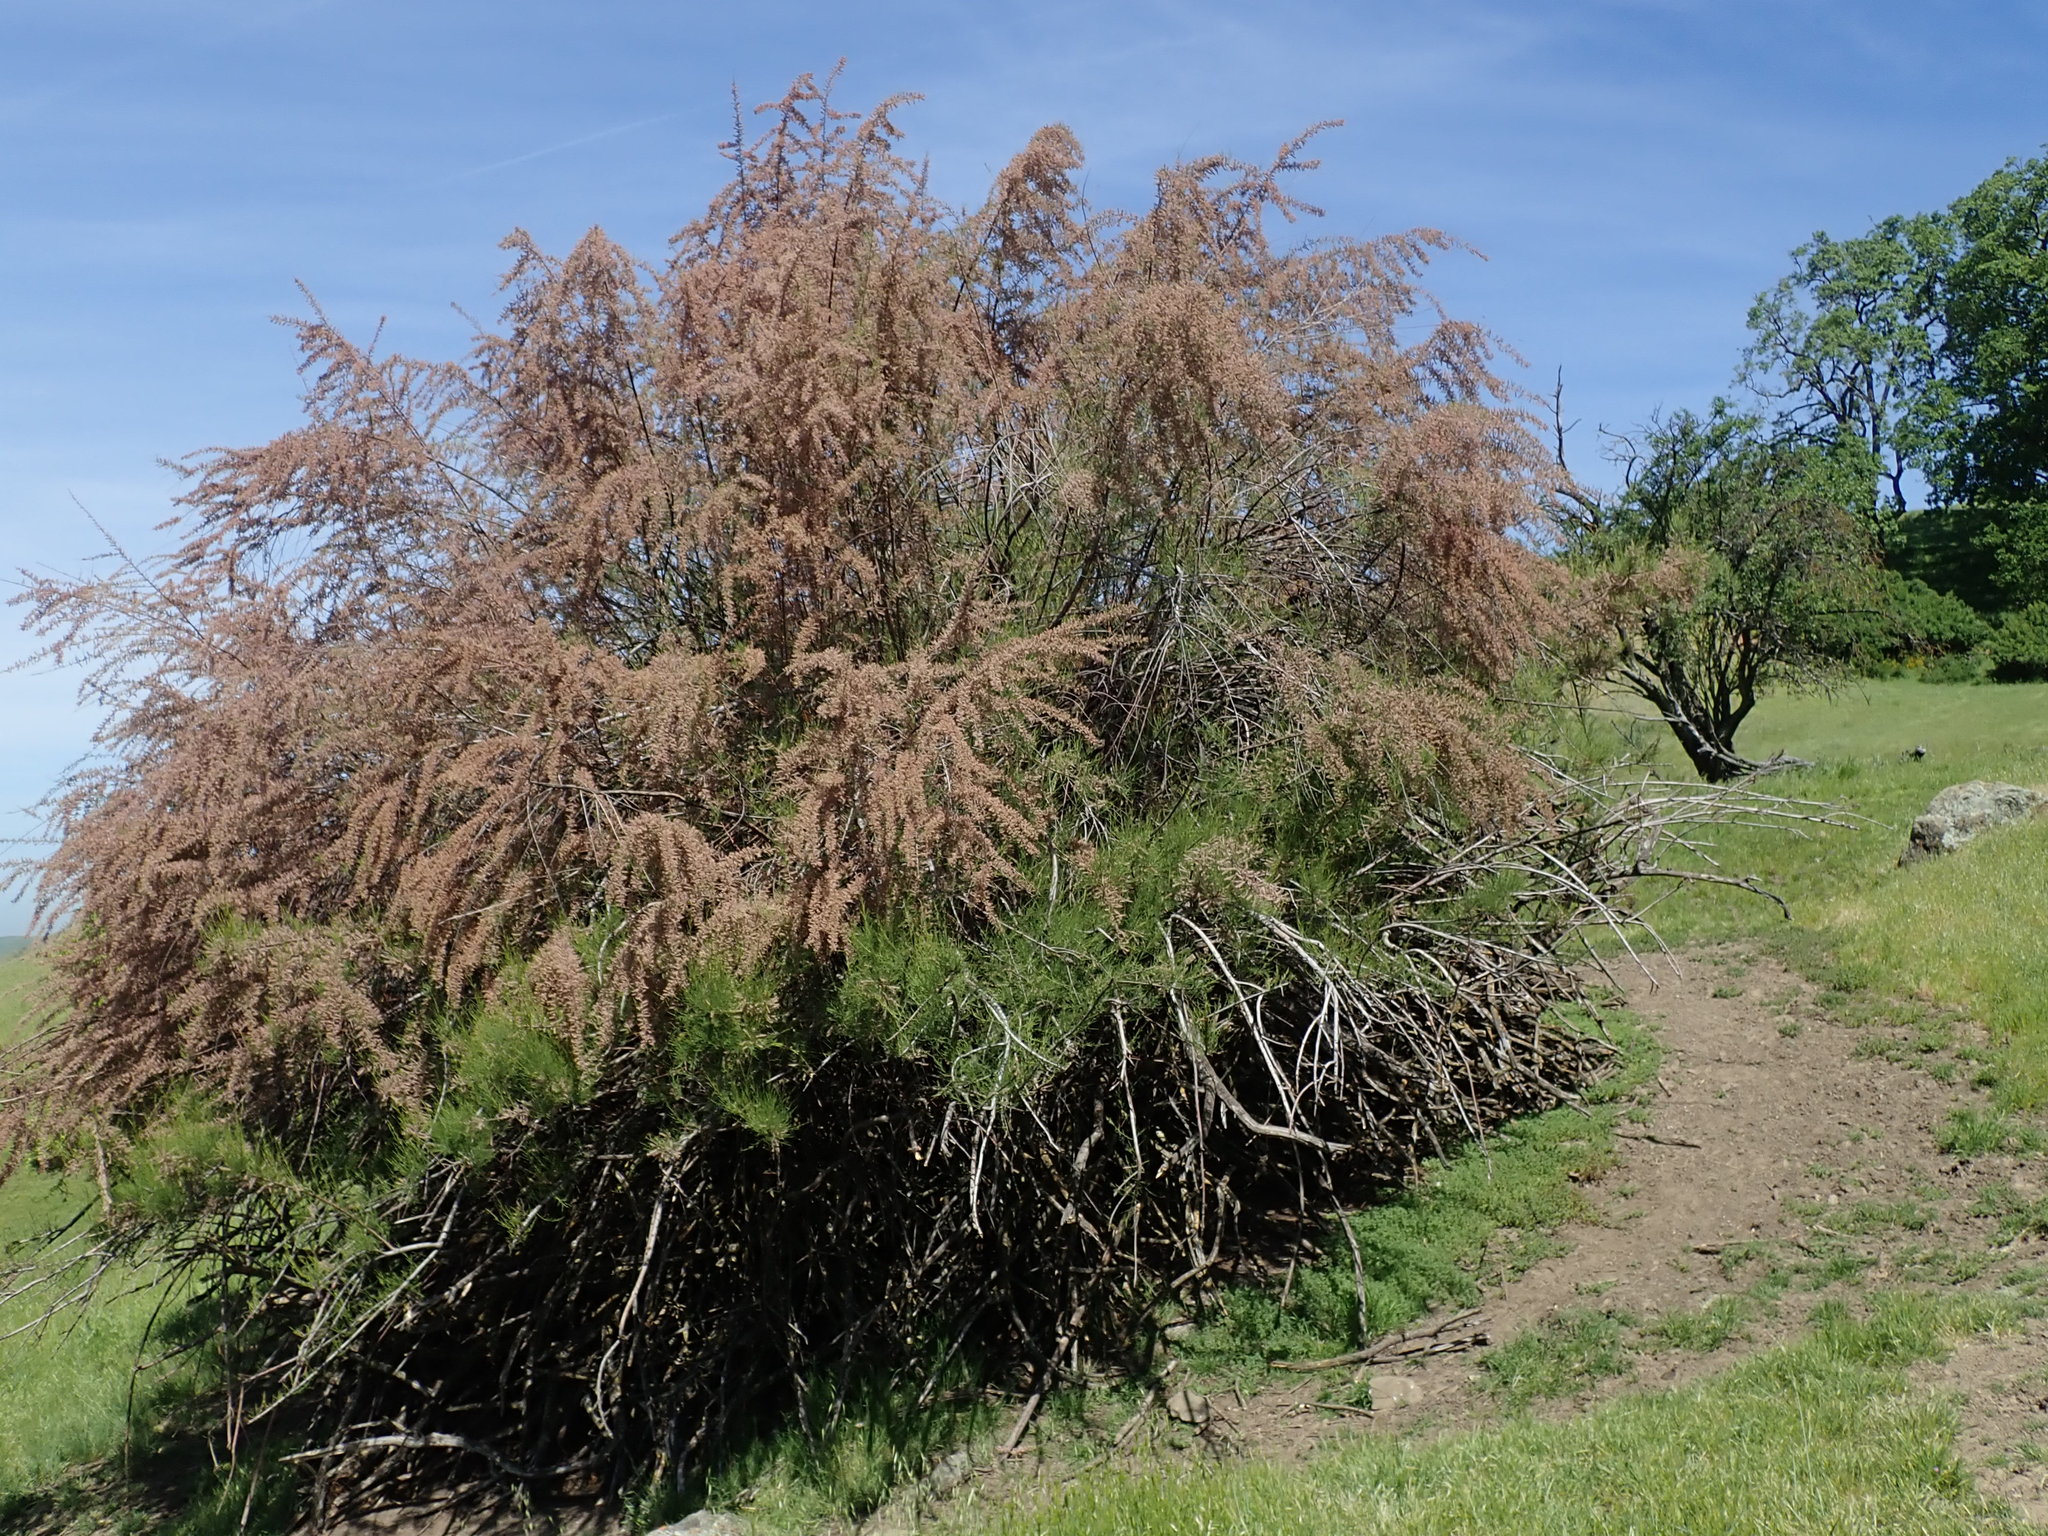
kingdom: Plantae
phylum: Tracheophyta
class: Magnoliopsida
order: Caryophyllales
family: Tamaricaceae
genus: Tamarix
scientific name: Tamarix ramosissima
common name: Pink tamarisk
